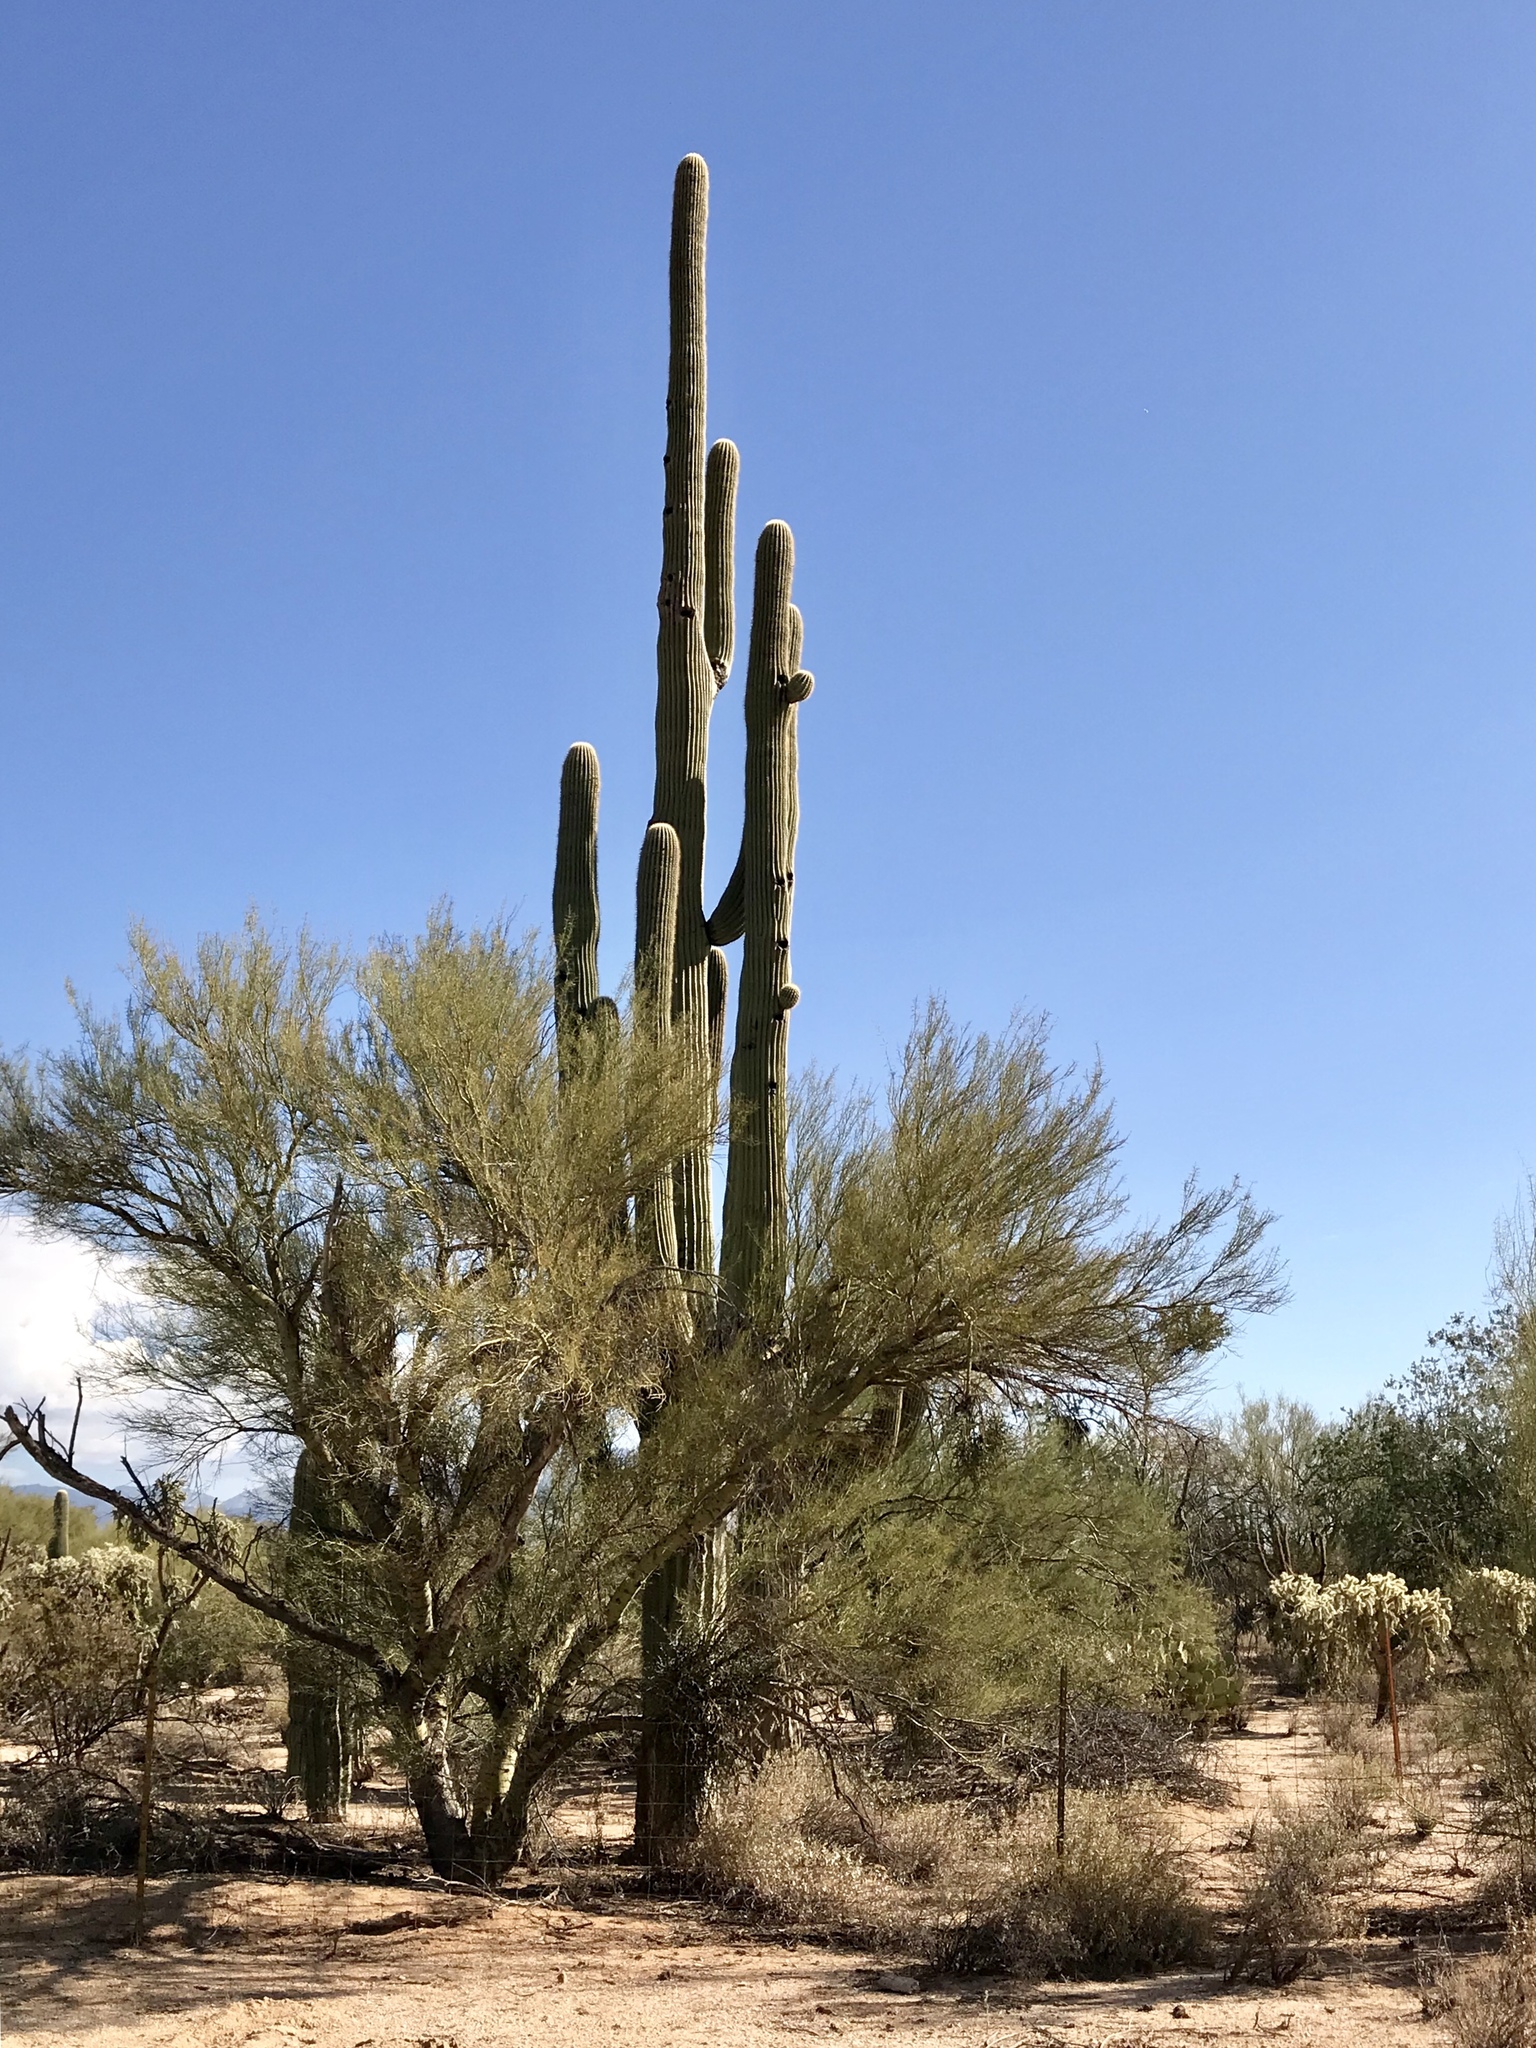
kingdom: Plantae
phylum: Tracheophyta
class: Magnoliopsida
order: Fabales
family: Fabaceae
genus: Parkinsonia
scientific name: Parkinsonia microphylla
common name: Yellow paloverde
